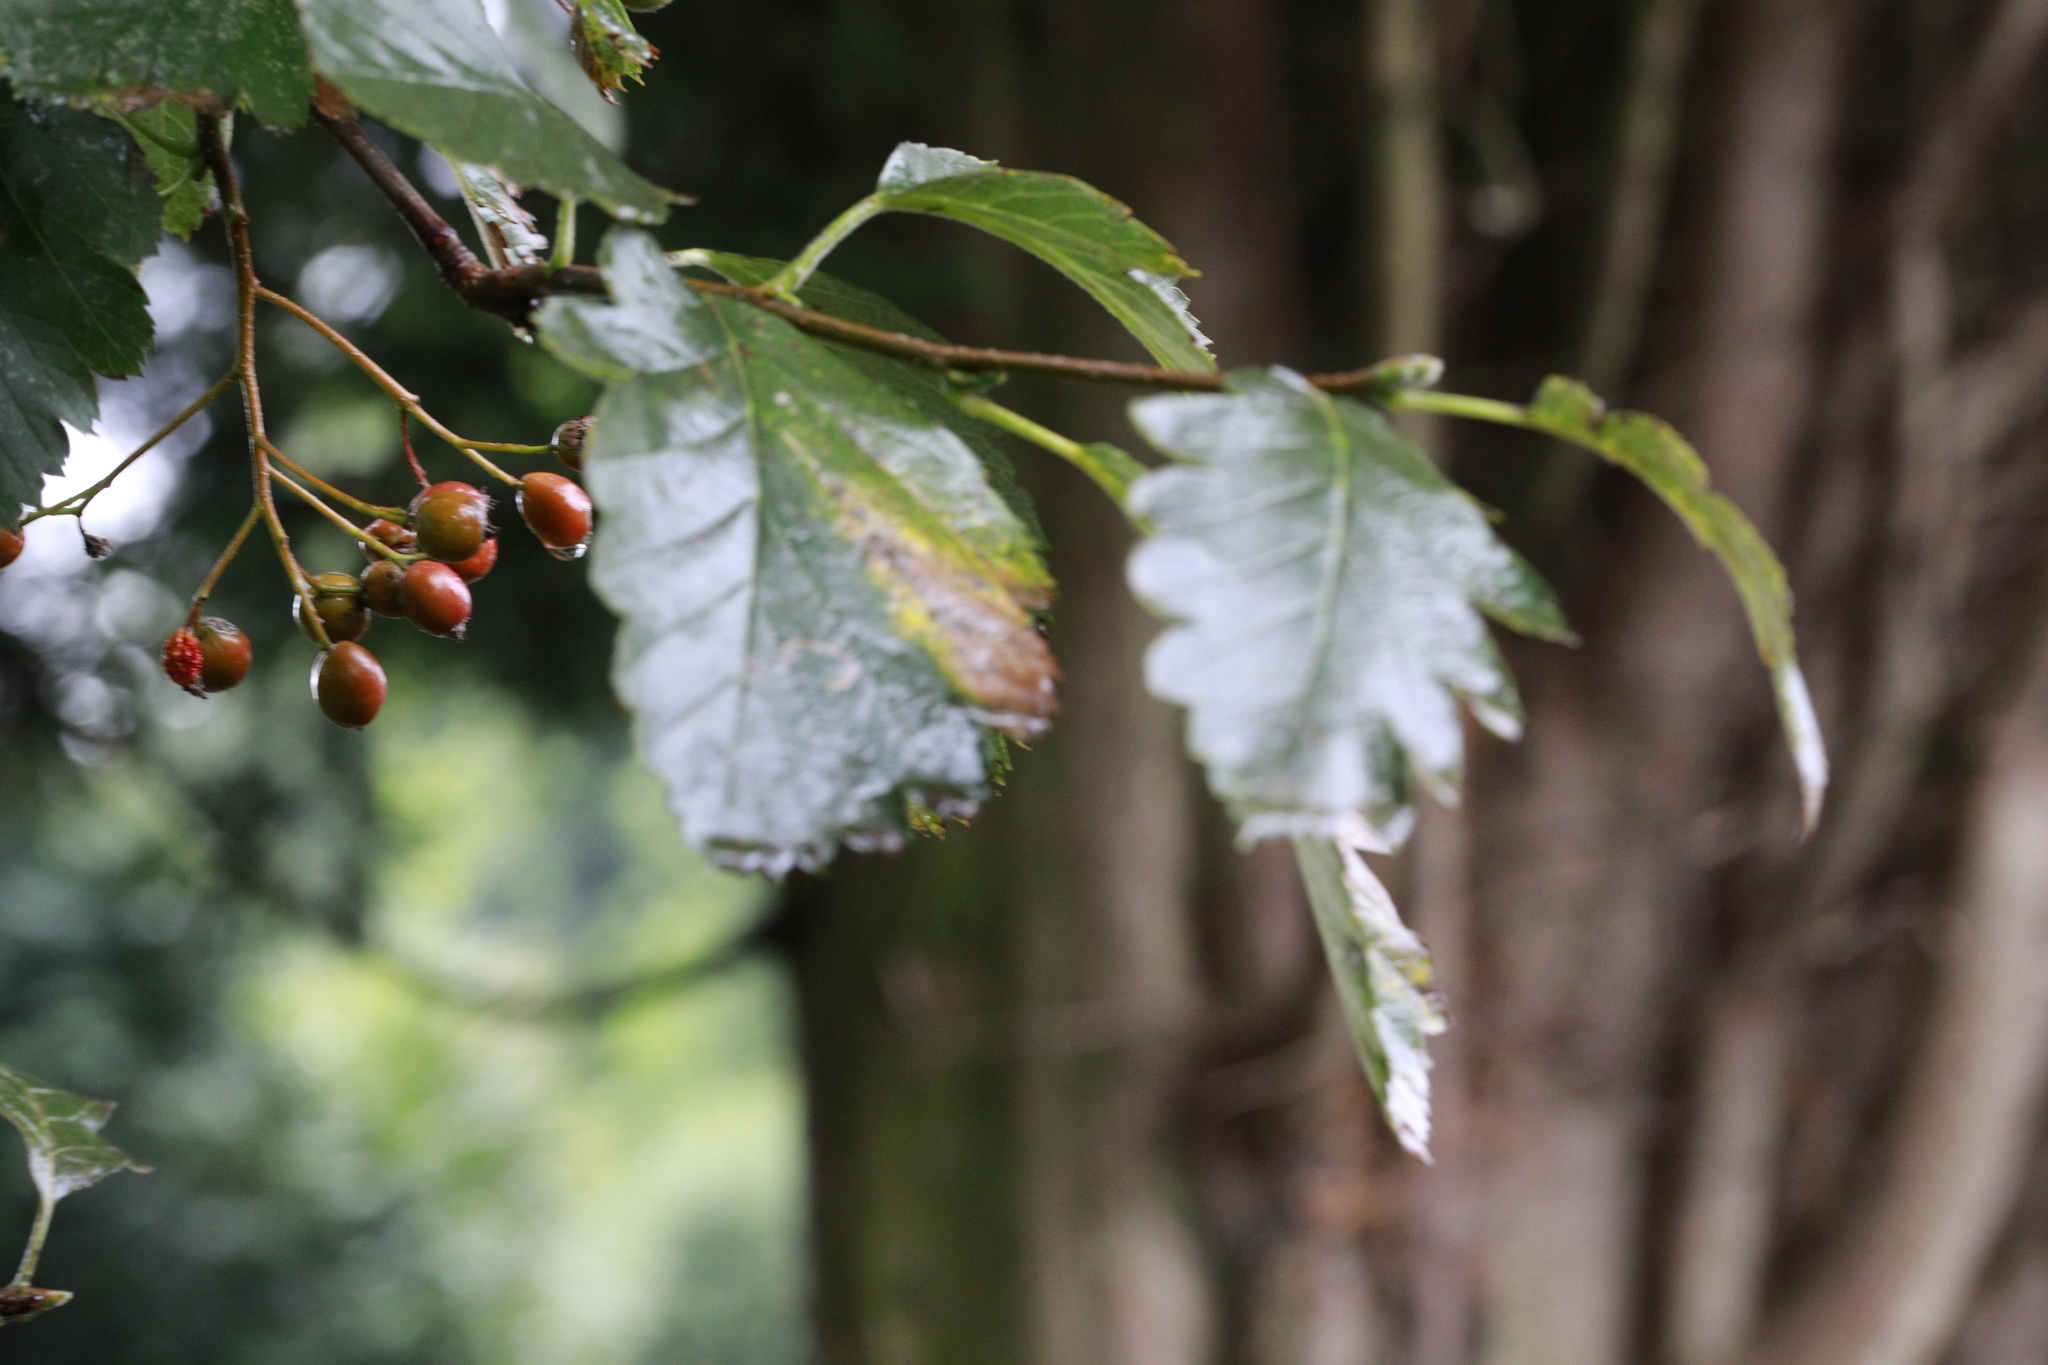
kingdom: Plantae
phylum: Tracheophyta
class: Magnoliopsida
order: Rosales
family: Rosaceae
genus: Scandosorbus
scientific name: Scandosorbus intermedia
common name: Swedish whitebeam
